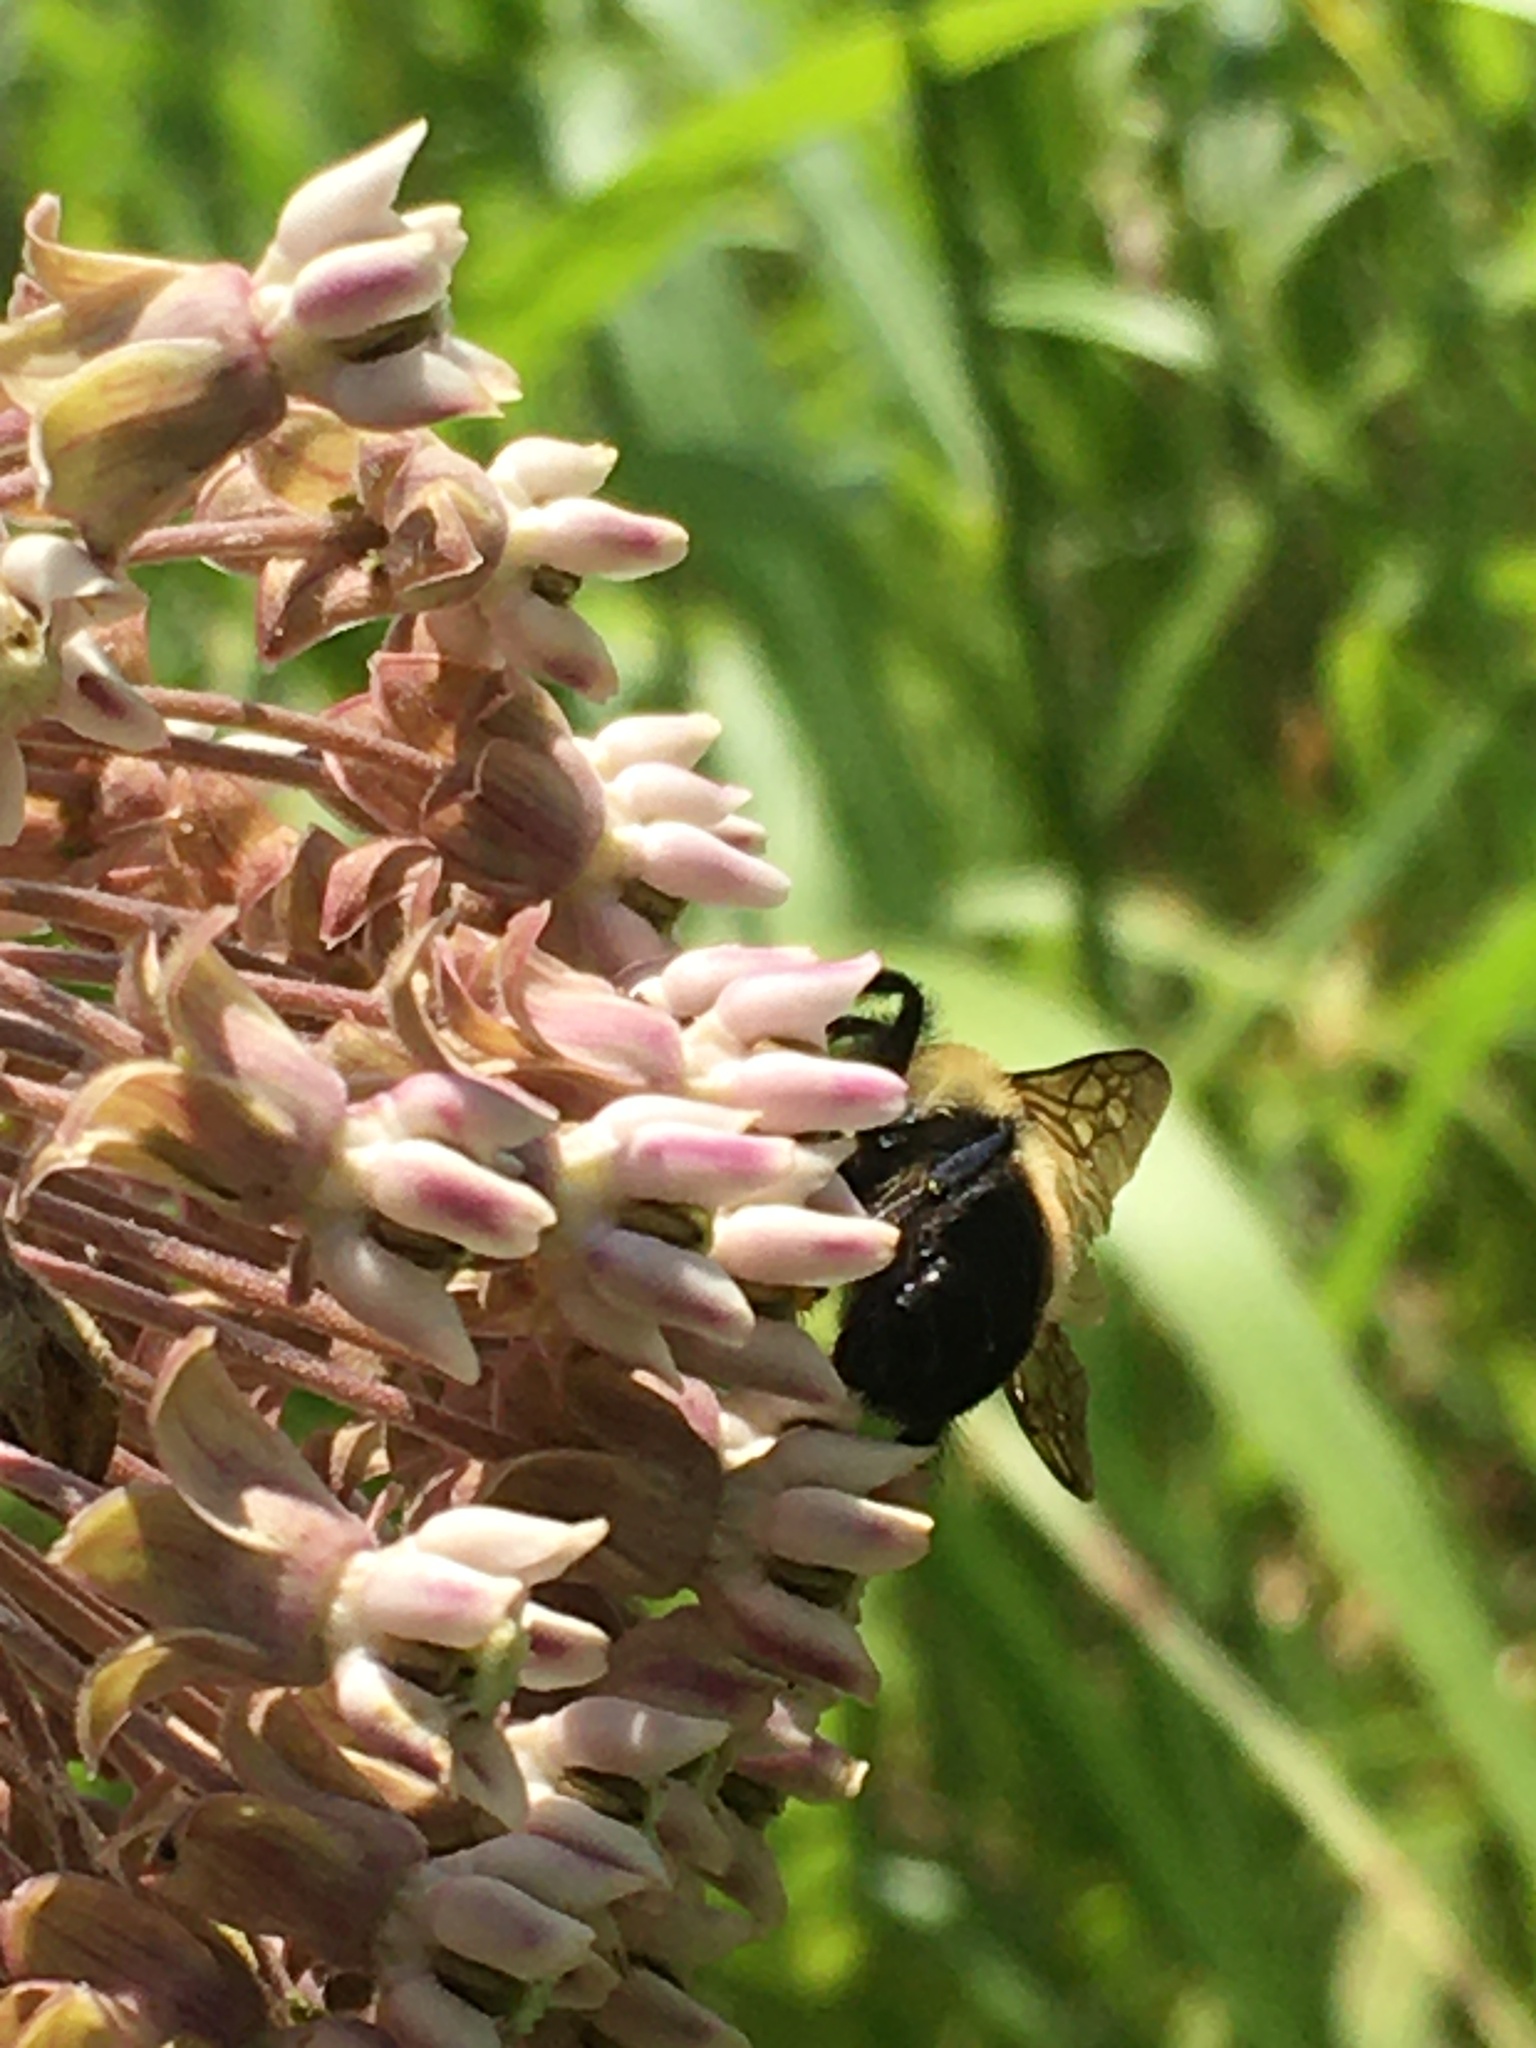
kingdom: Animalia
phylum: Arthropoda
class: Insecta
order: Hymenoptera
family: Apidae
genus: Bombus
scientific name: Bombus griseocollis
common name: Brown-belted bumble bee
